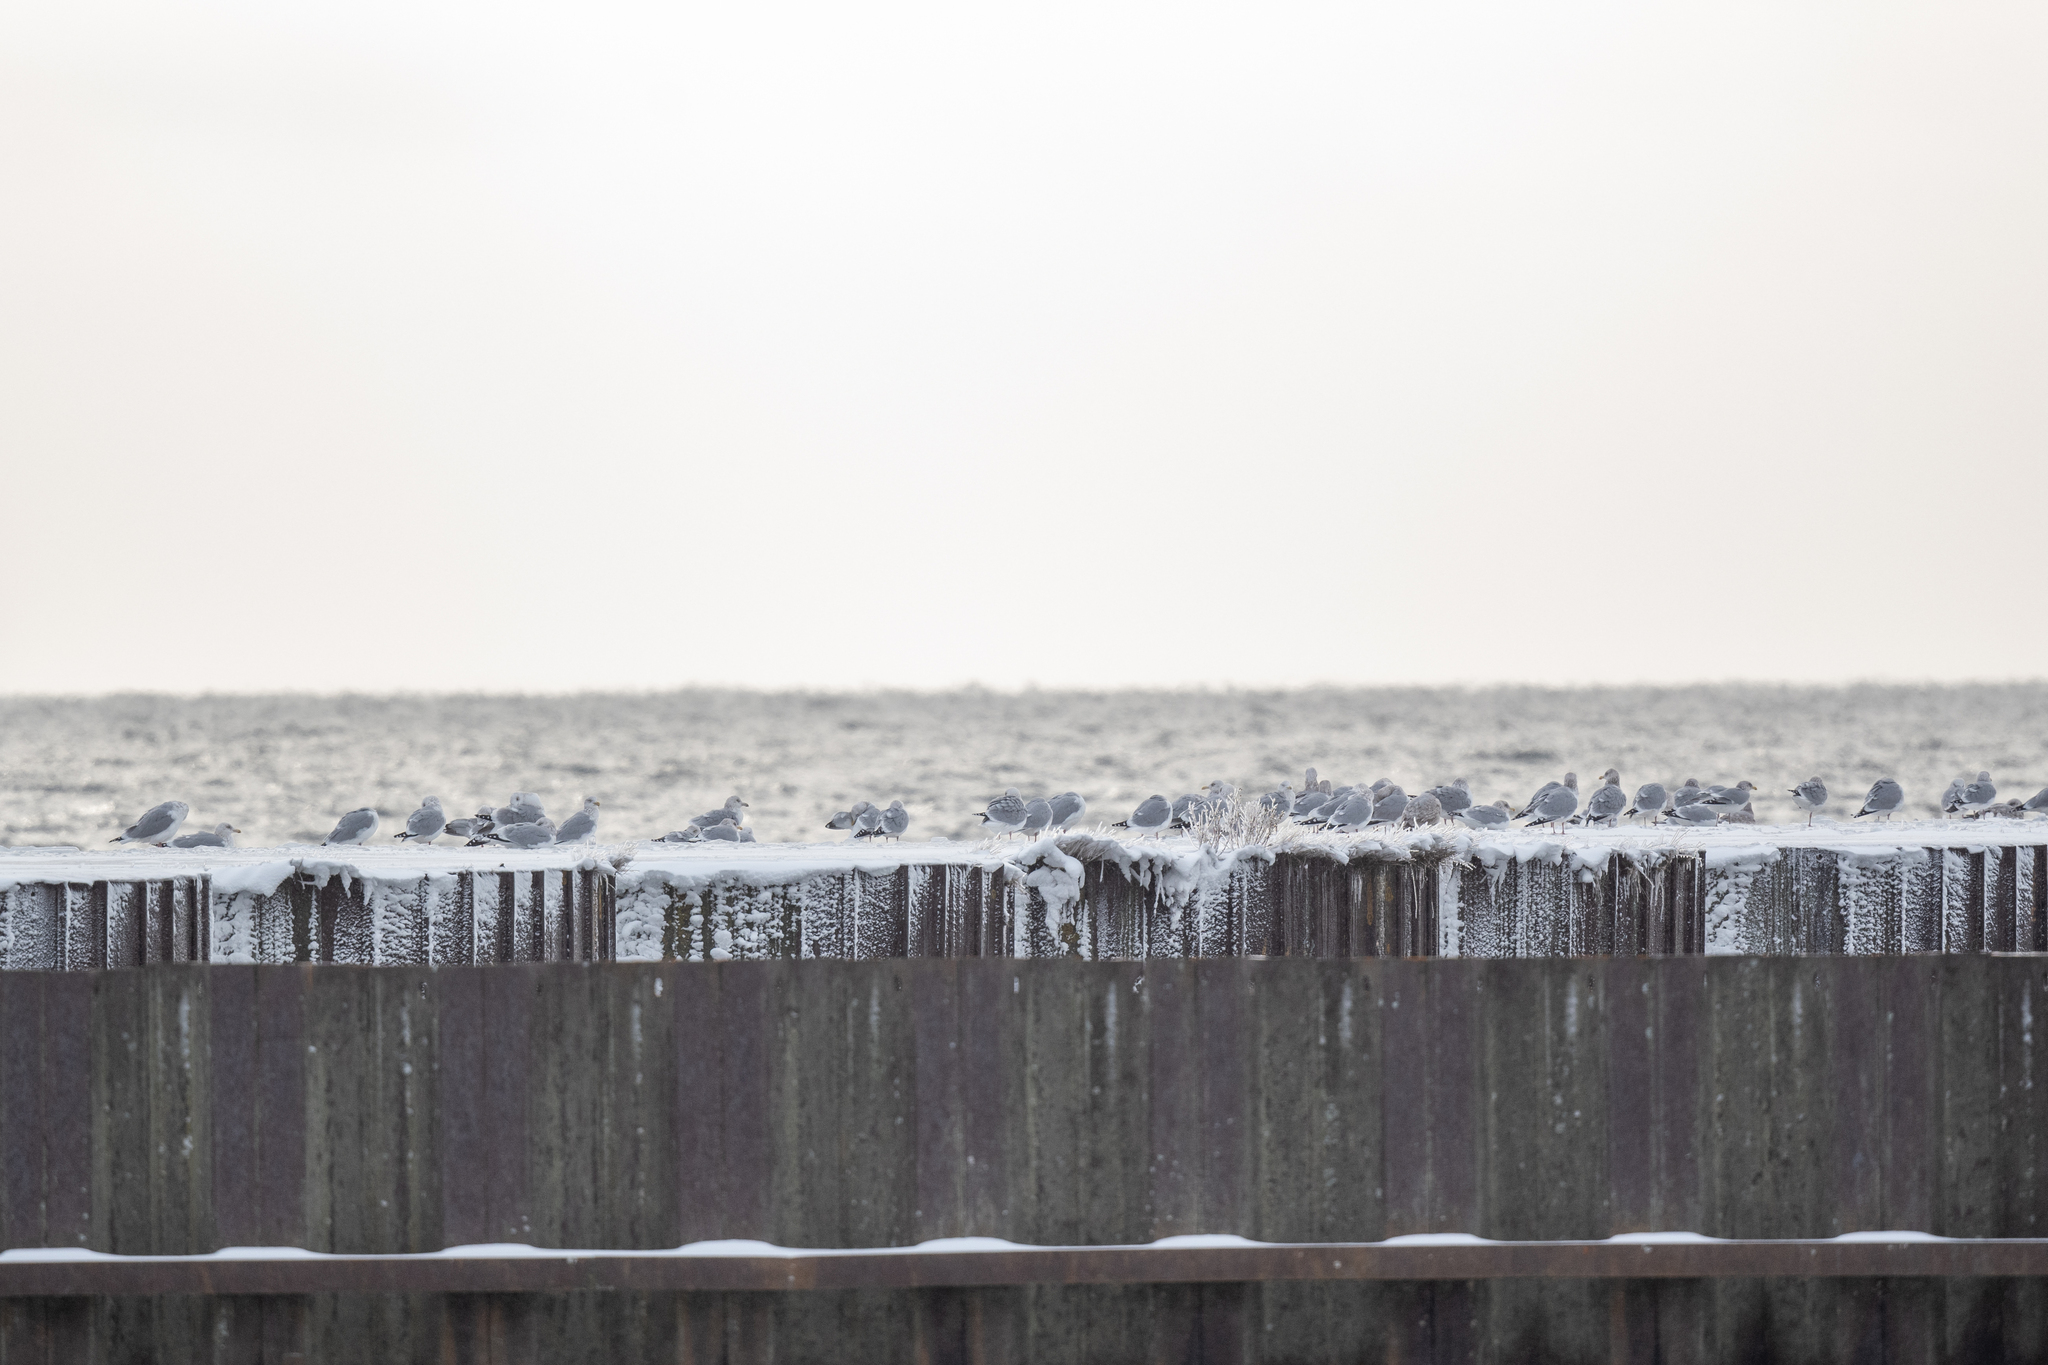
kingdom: Animalia
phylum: Chordata
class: Aves
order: Charadriiformes
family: Laridae
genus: Larus
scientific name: Larus argentatus
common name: Herring gull
